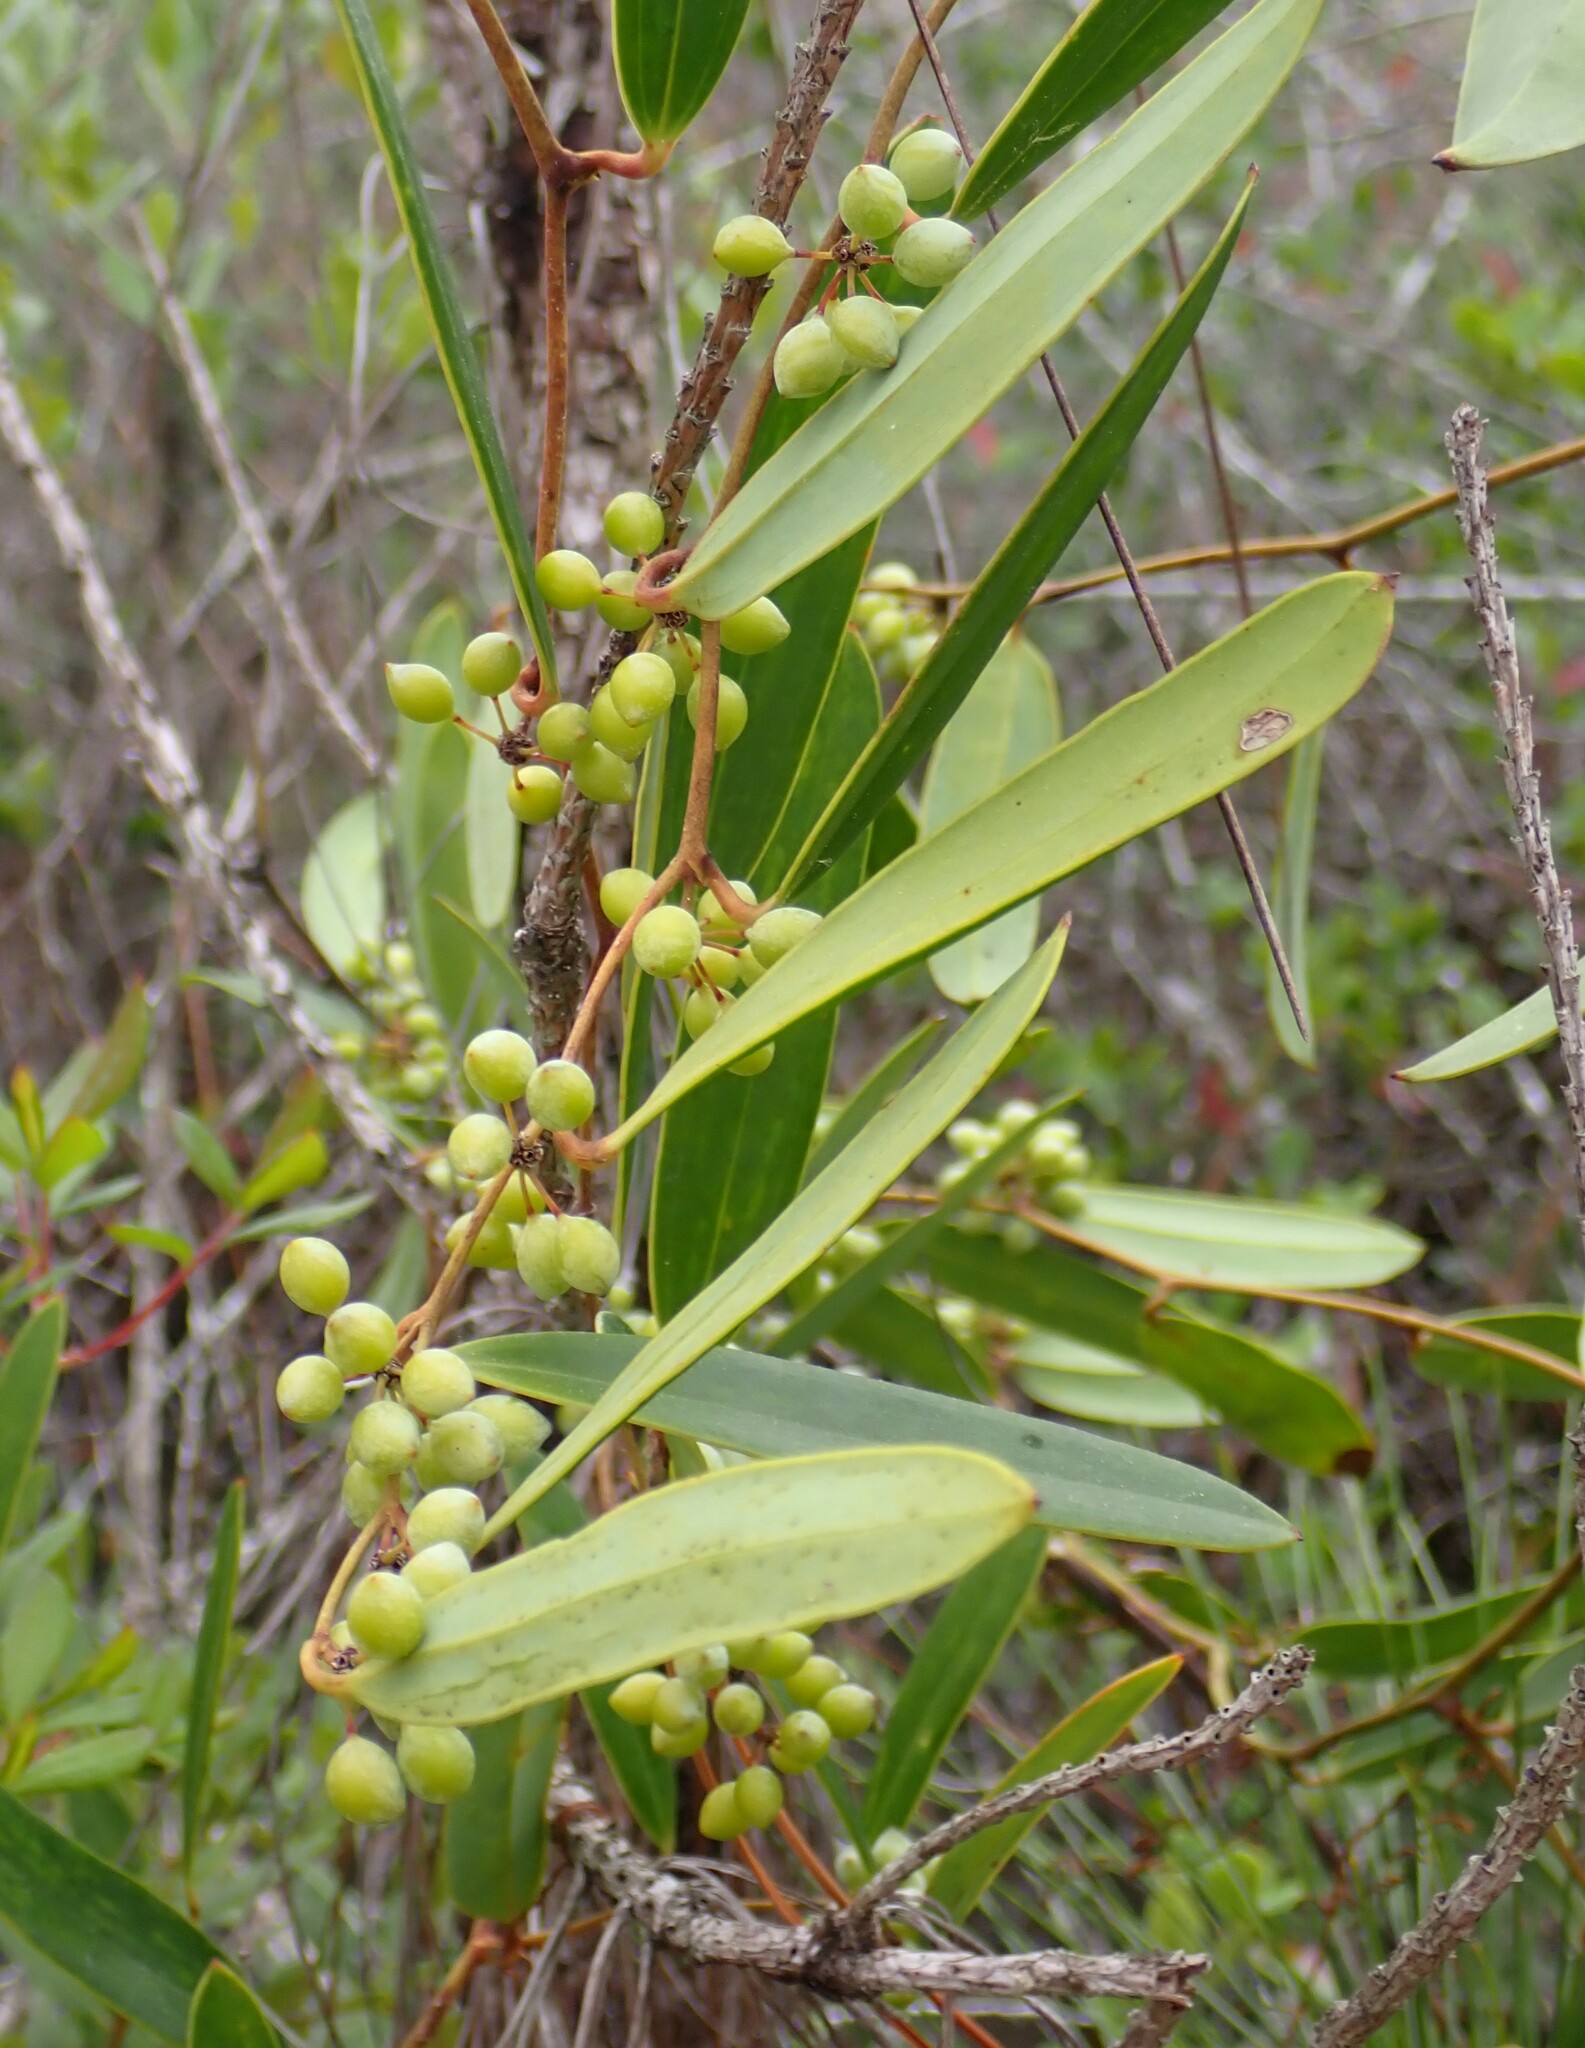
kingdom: Plantae
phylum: Tracheophyta
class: Liliopsida
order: Liliales
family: Smilacaceae
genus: Smilax
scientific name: Smilax laurifolia
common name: Bamboovine
